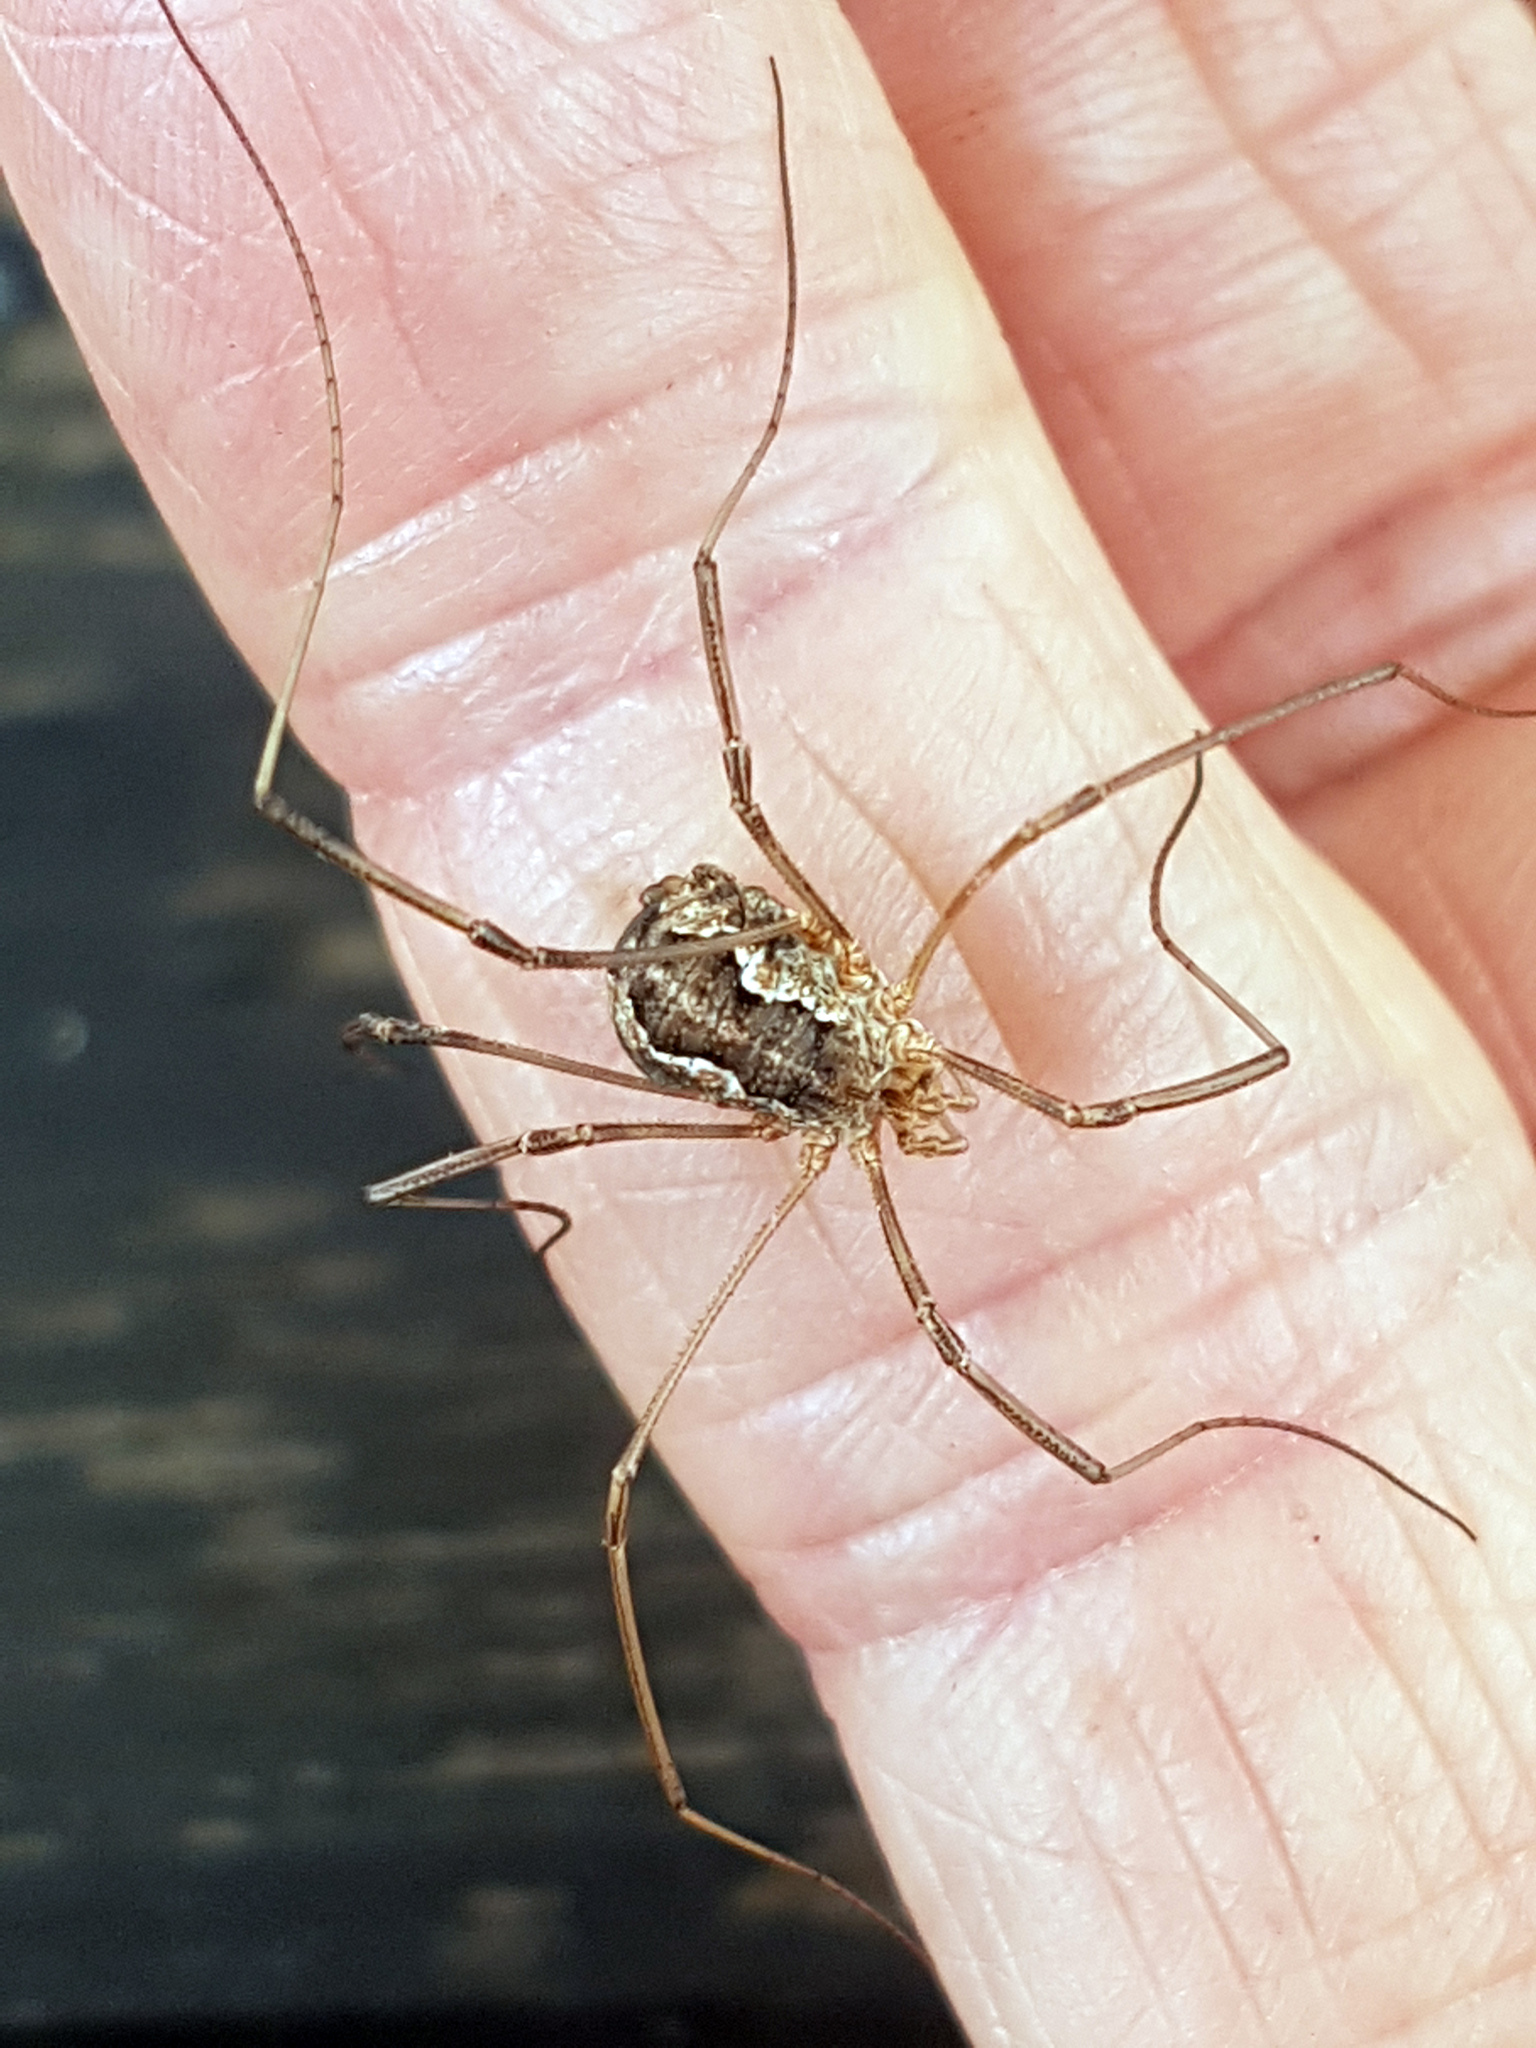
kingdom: Animalia
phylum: Arthropoda
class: Arachnida
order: Opiliones
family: Phalangiidae
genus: Phalangium
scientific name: Phalangium opilio
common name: Daddy longleg
